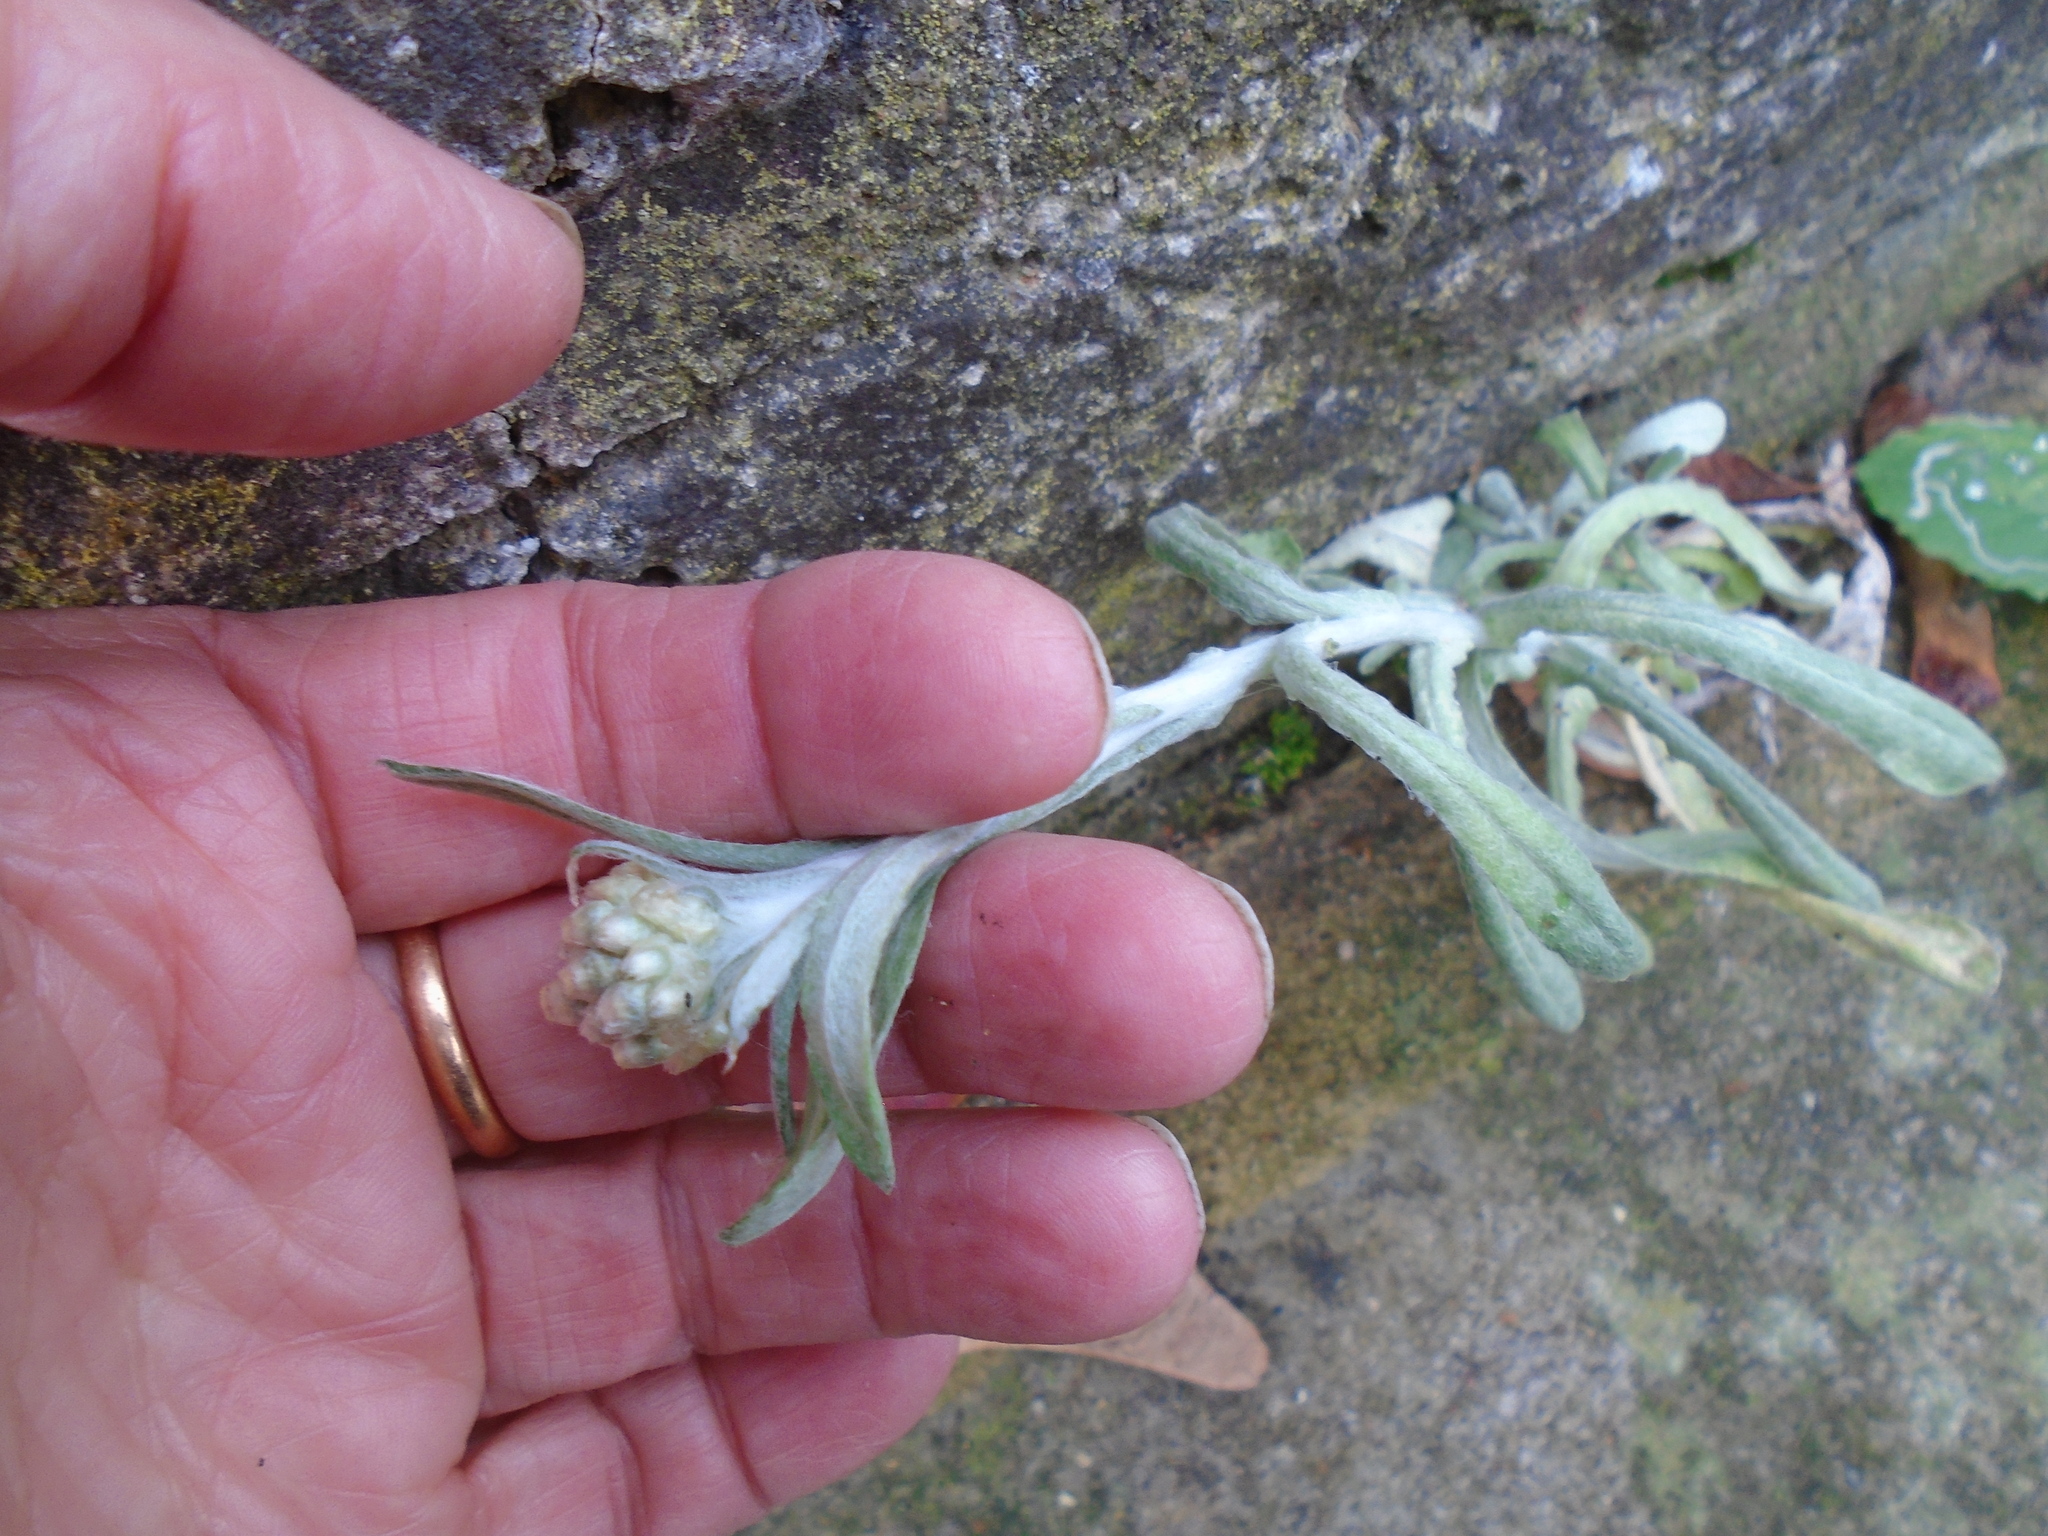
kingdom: Plantae
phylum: Tracheophyta
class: Magnoliopsida
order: Asterales
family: Asteraceae
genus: Helichrysum
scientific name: Helichrysum luteoalbum
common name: Daisy
